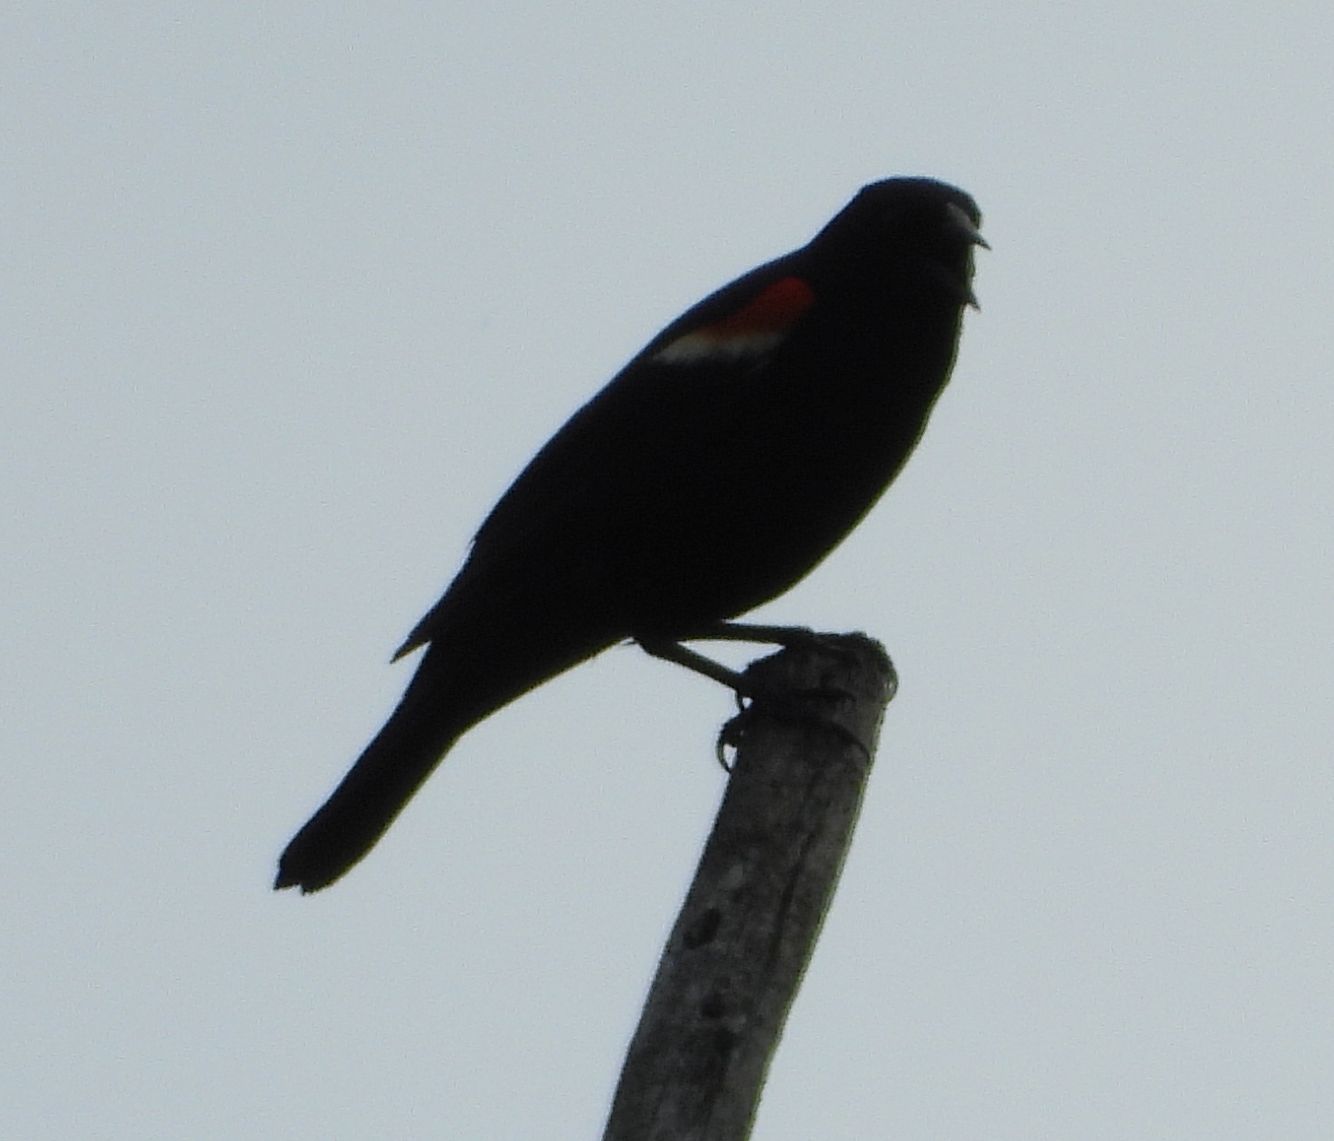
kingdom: Animalia
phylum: Chordata
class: Aves
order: Passeriformes
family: Icteridae
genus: Agelaius
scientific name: Agelaius phoeniceus
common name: Red-winged blackbird
